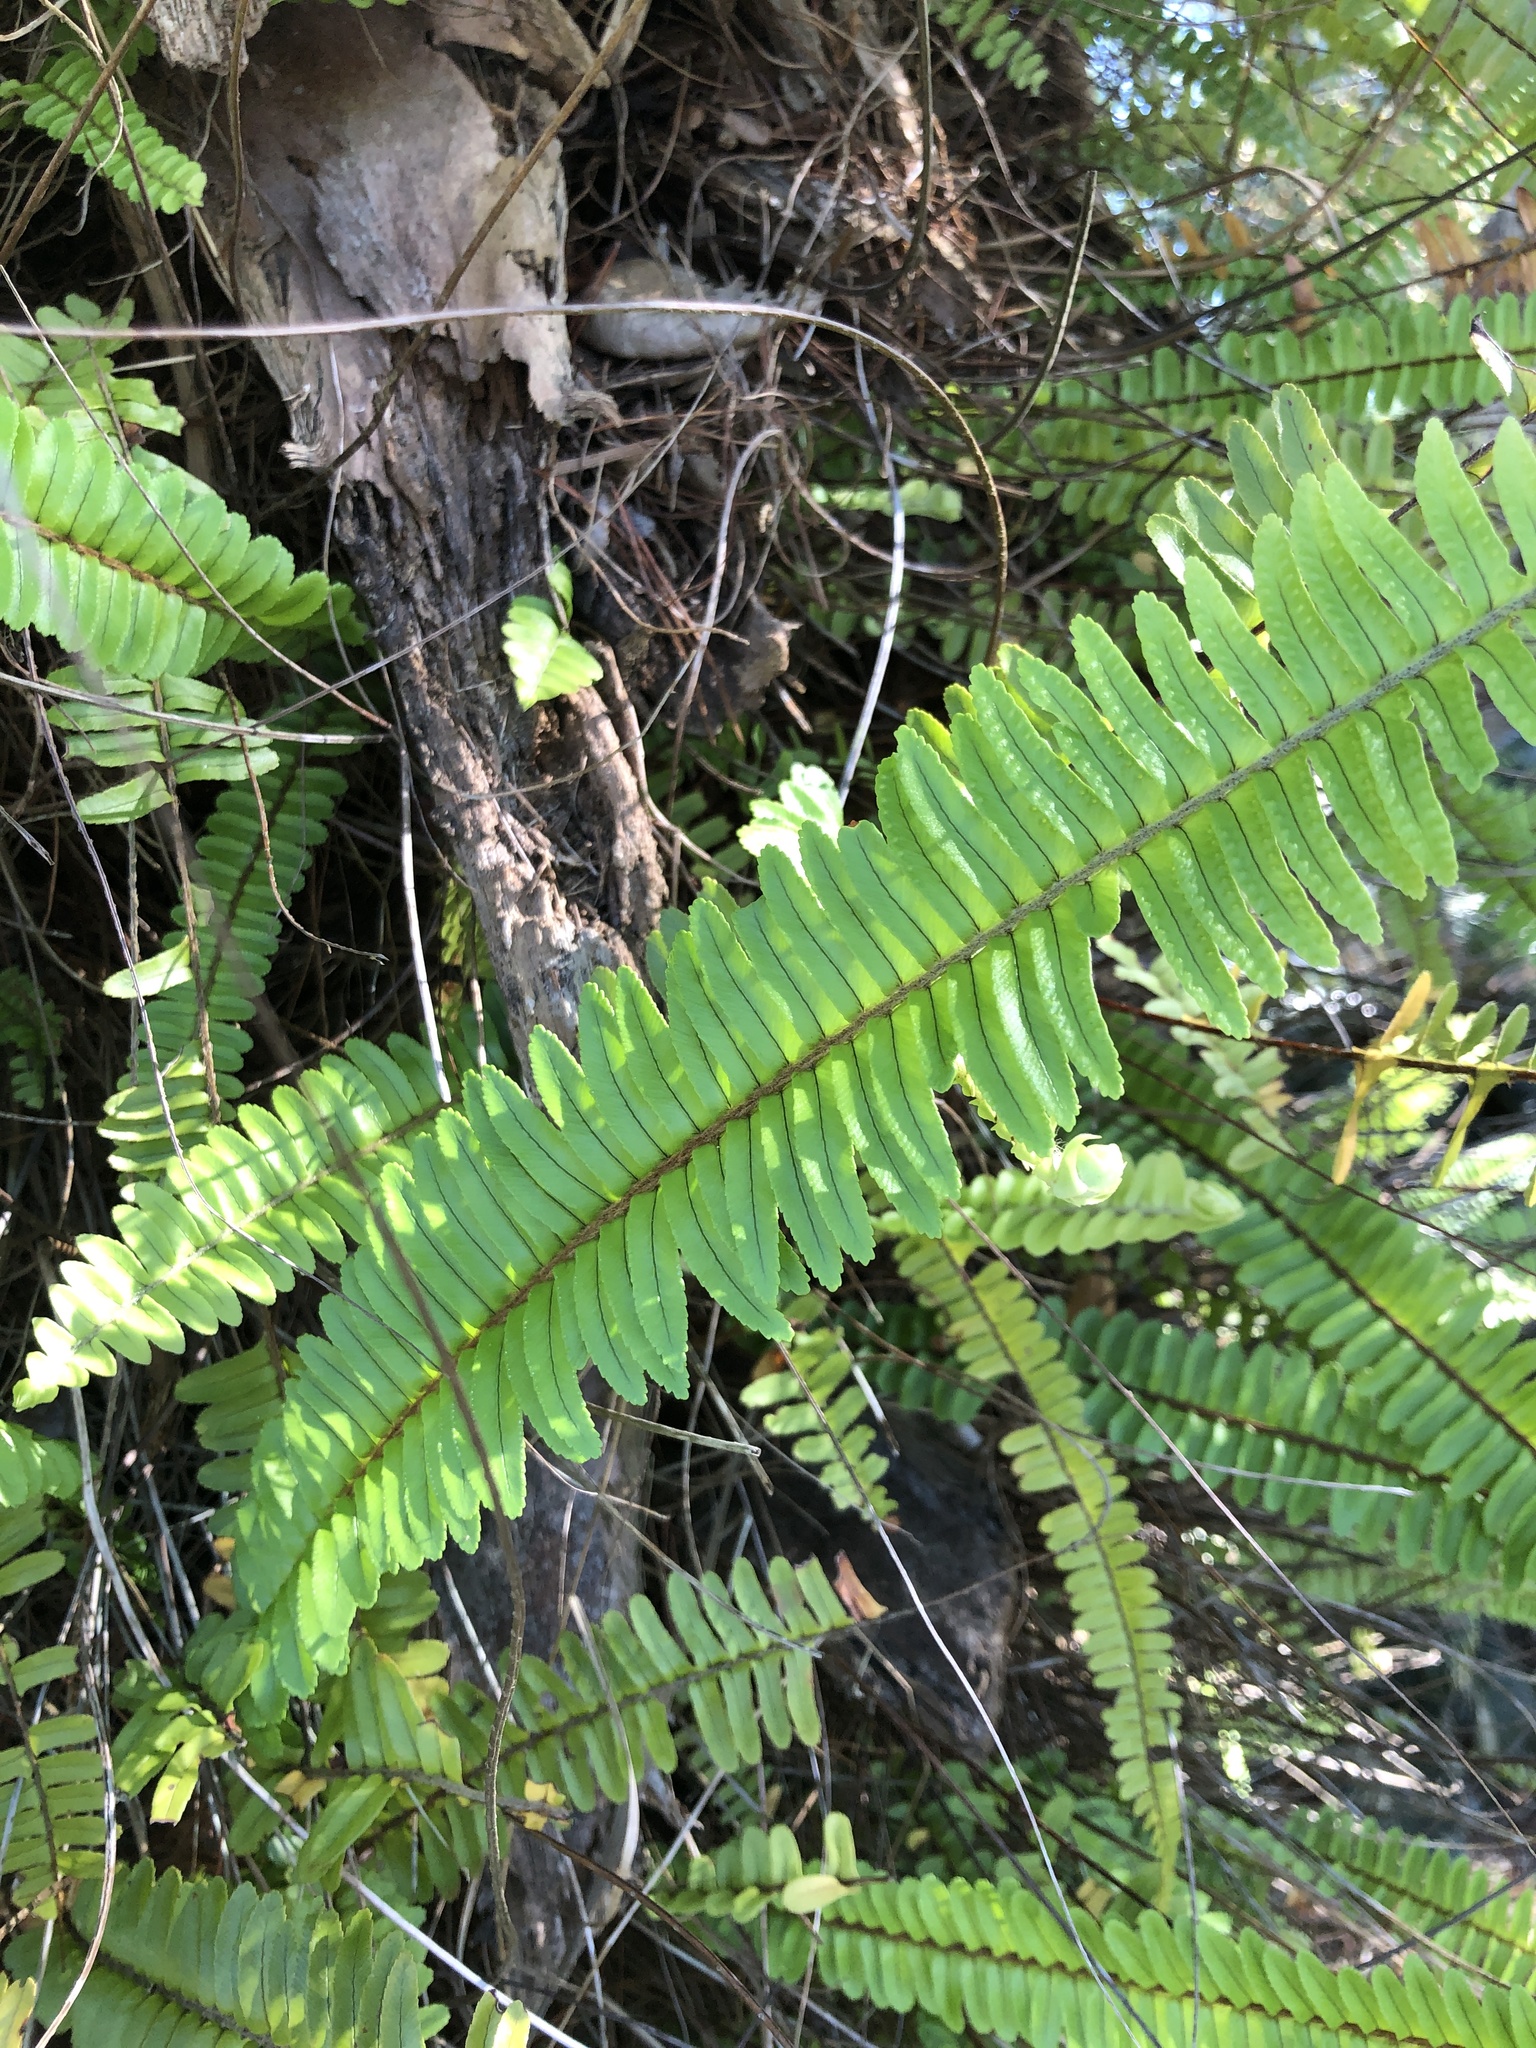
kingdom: Plantae
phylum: Tracheophyta
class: Polypodiopsida
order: Polypodiales
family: Nephrolepidaceae
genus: Nephrolepis
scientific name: Nephrolepis cordifolia
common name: Narrow swordfern
